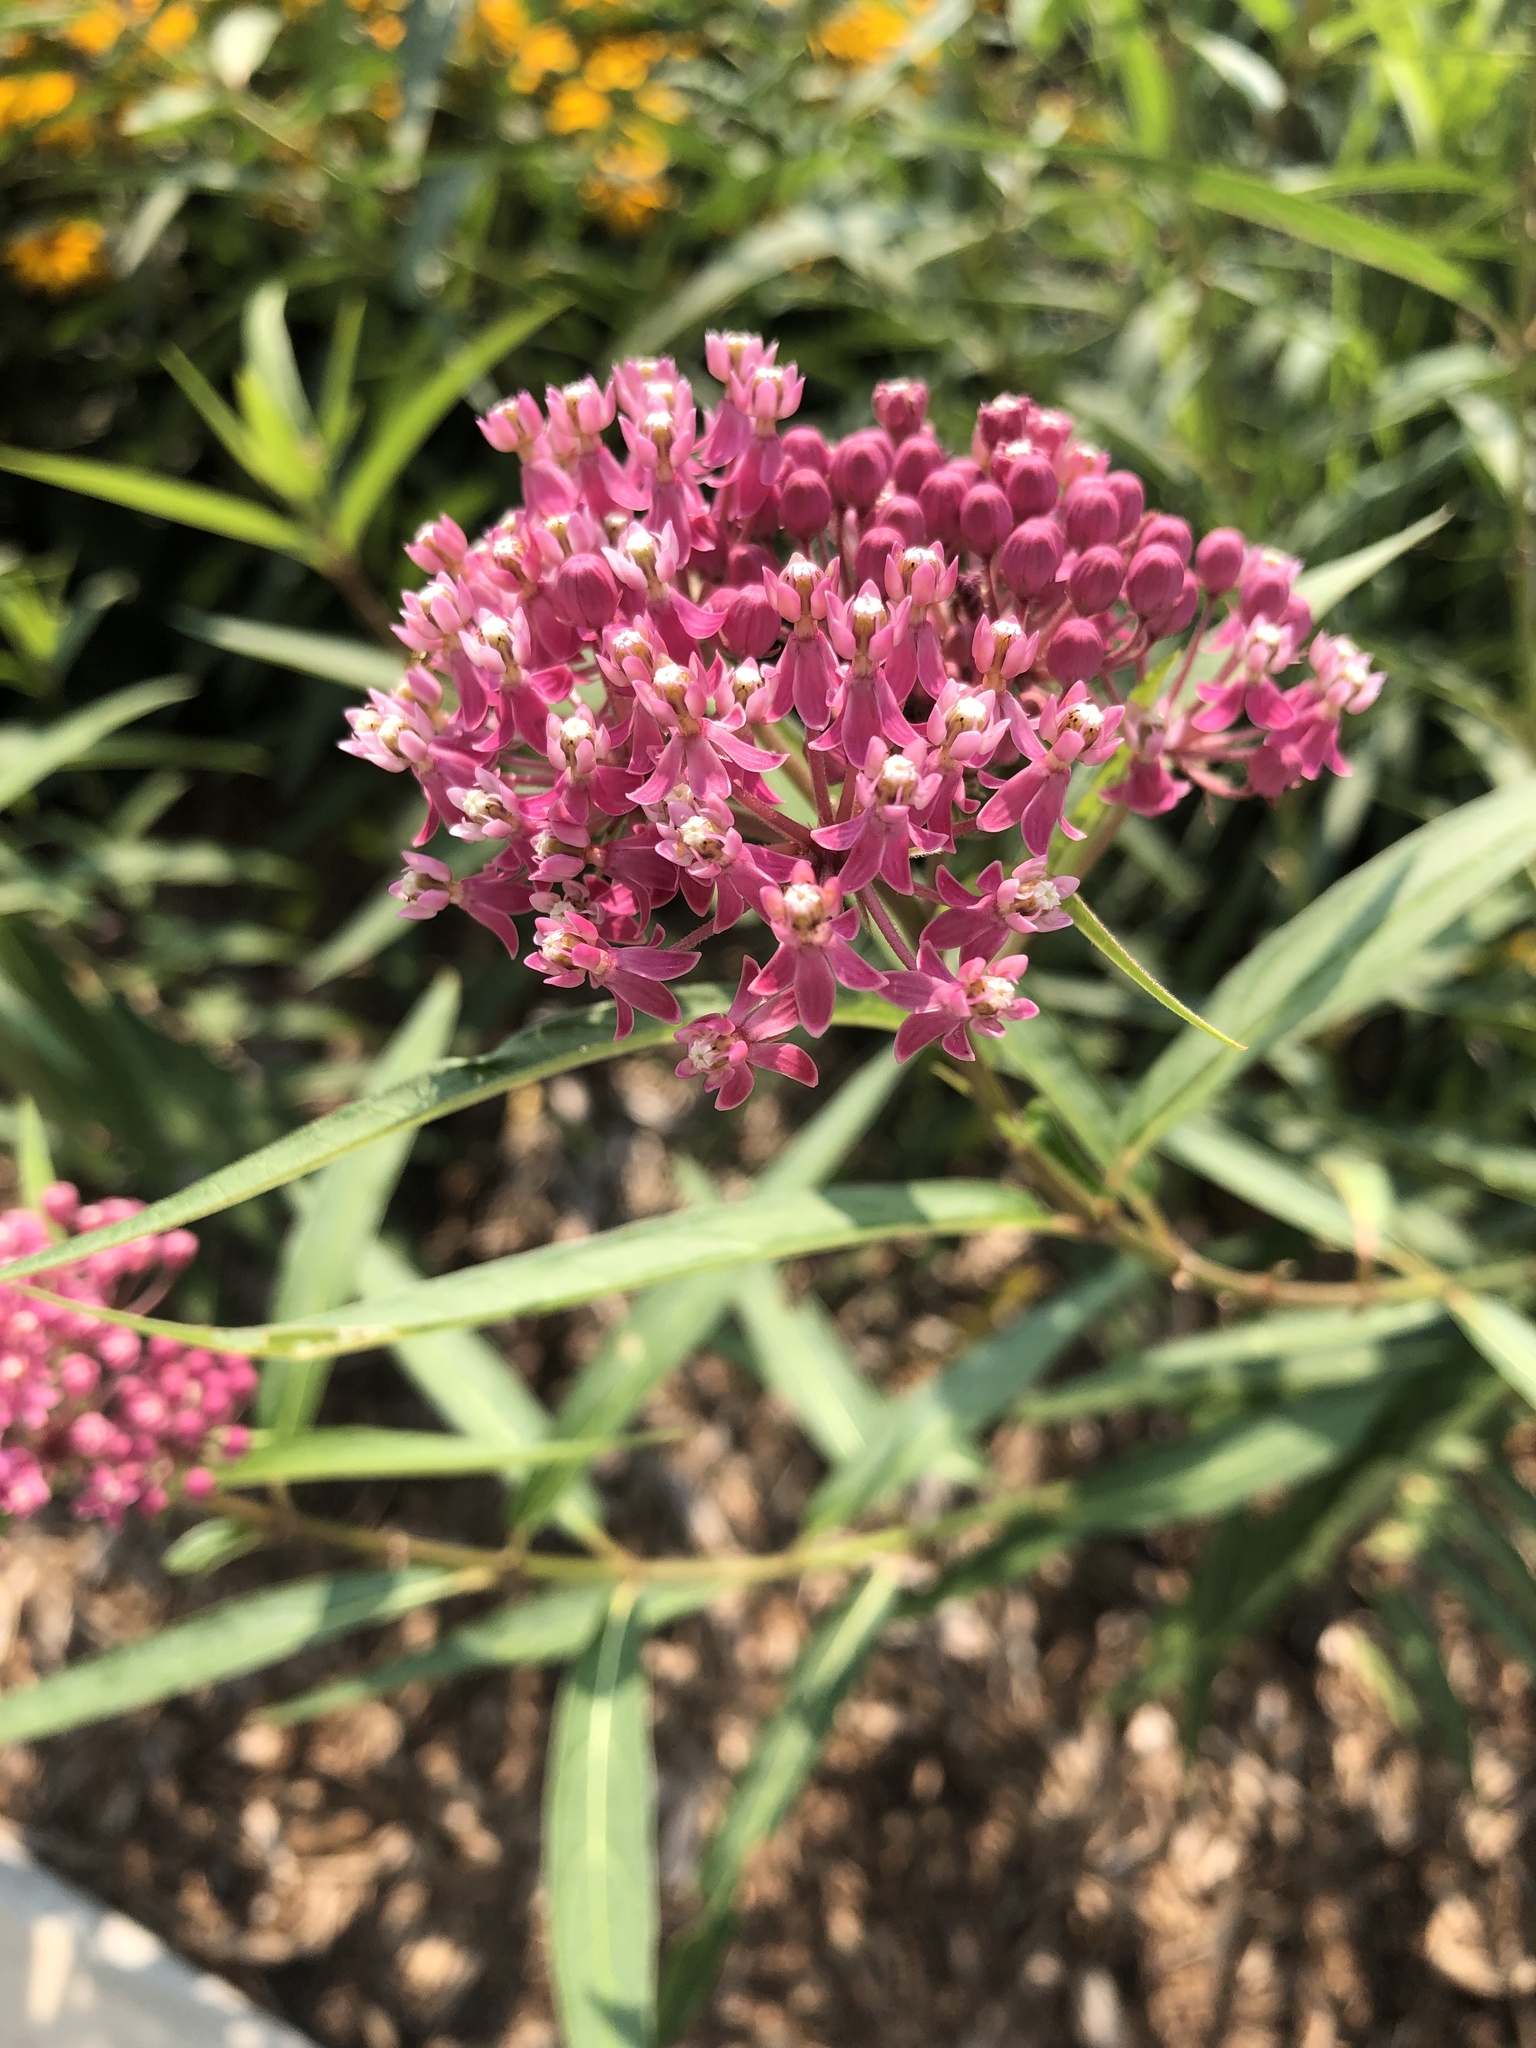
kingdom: Plantae
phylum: Tracheophyta
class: Magnoliopsida
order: Gentianales
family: Apocynaceae
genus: Asclepias
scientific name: Asclepias incarnata
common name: Swamp milkweed
